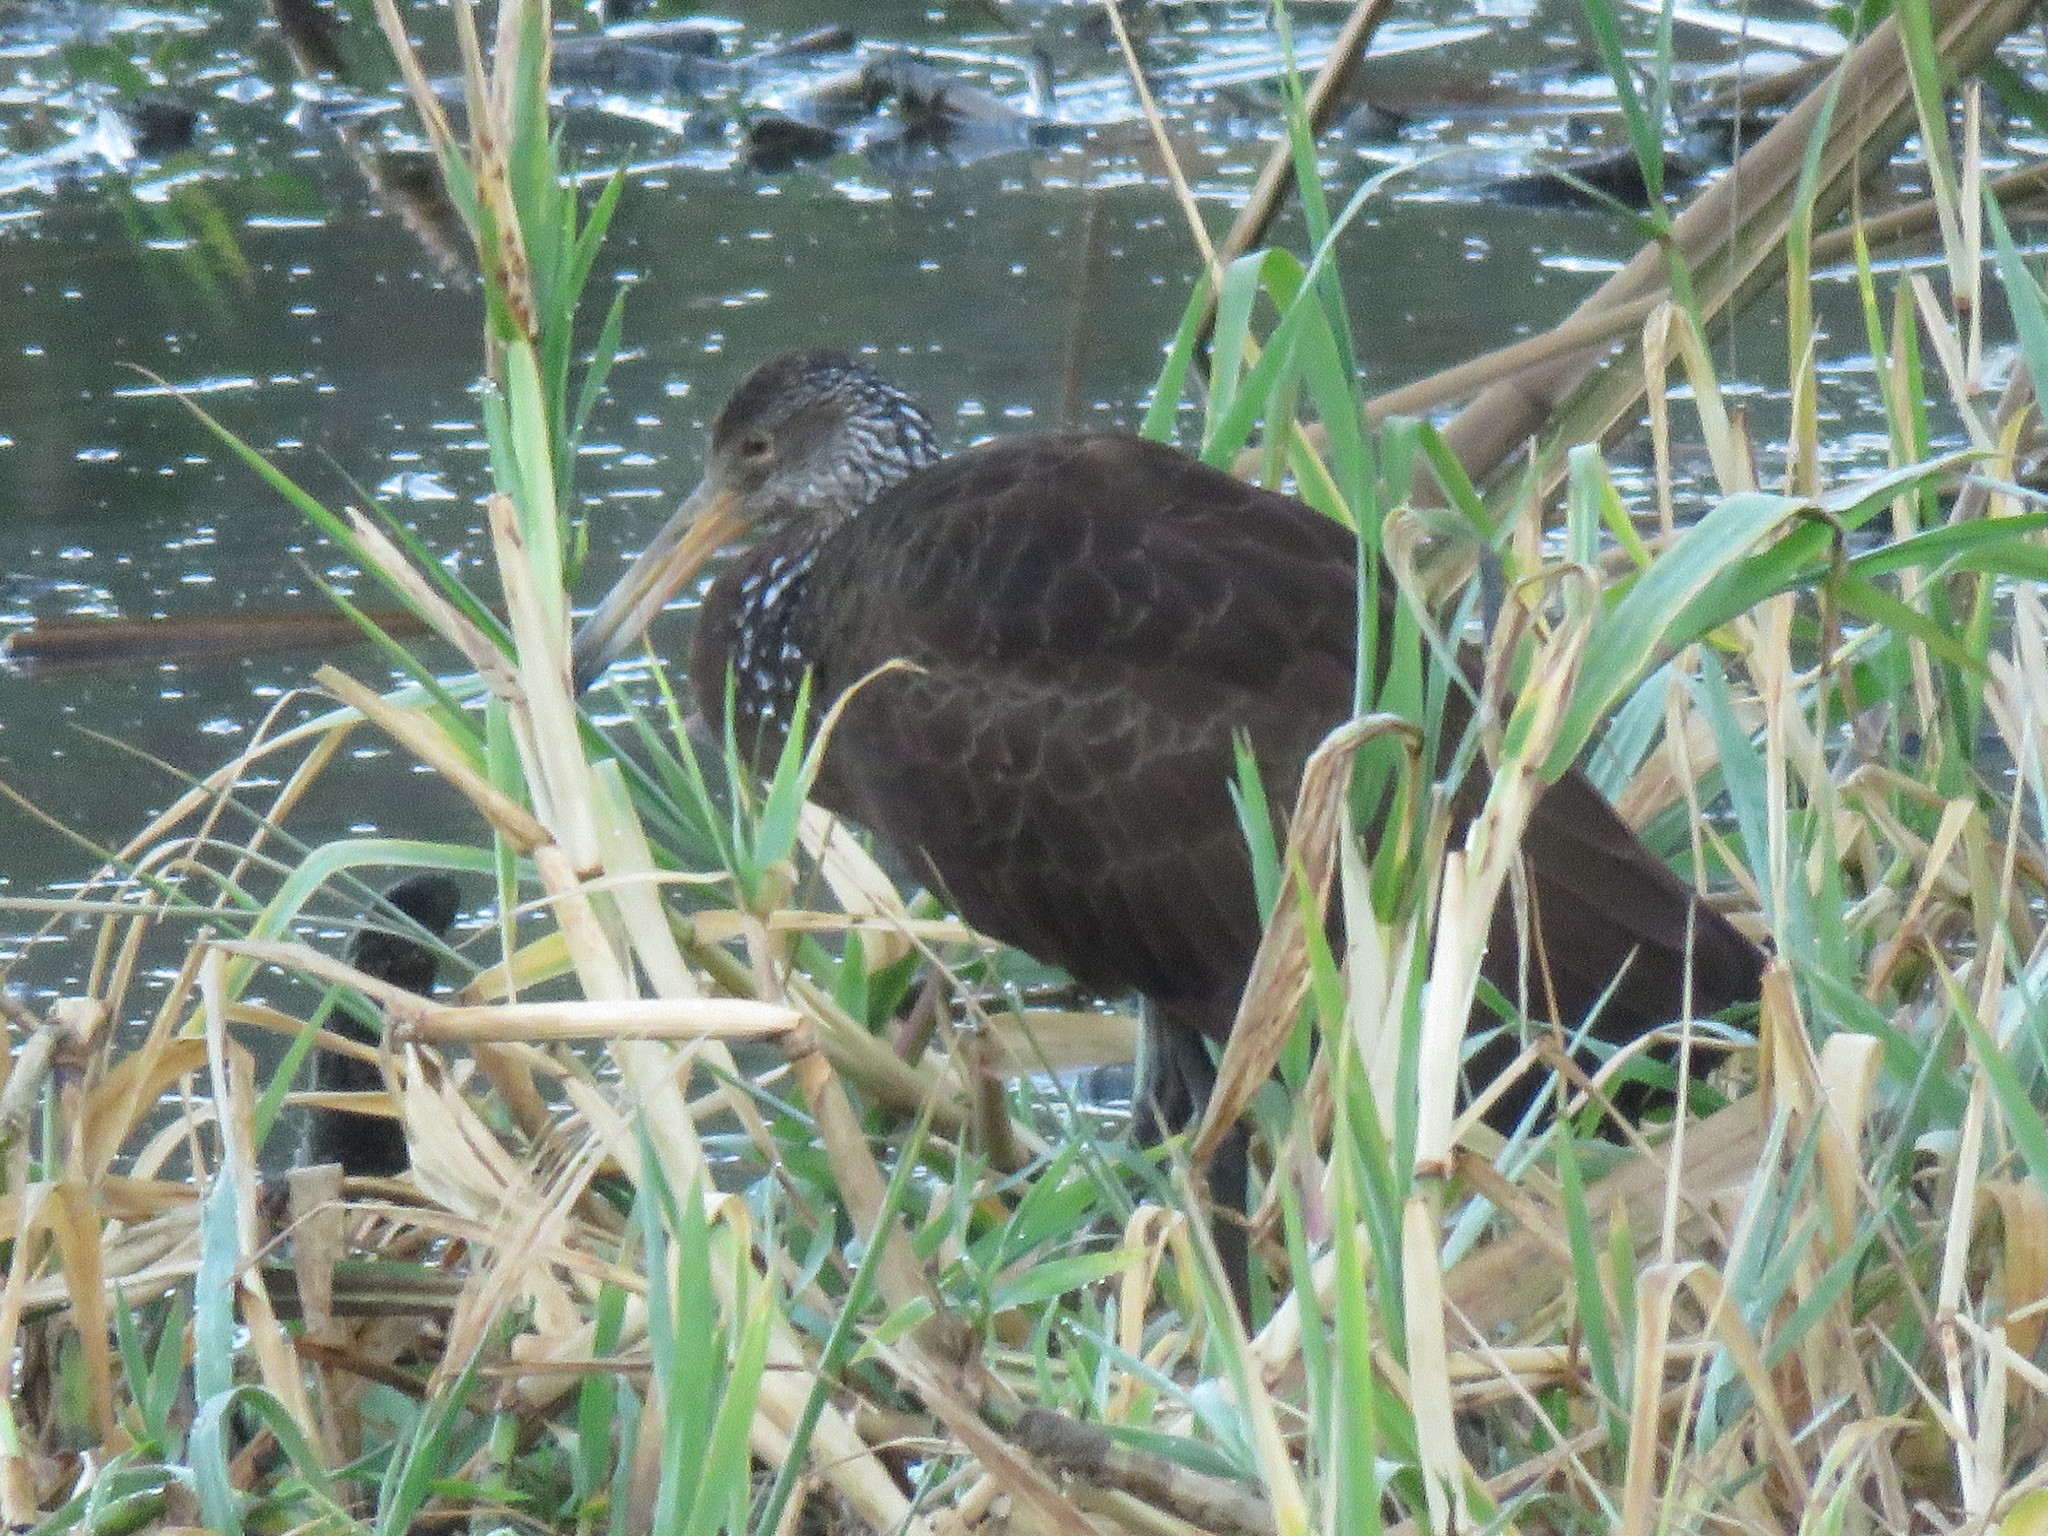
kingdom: Animalia
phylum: Chordata
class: Aves
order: Gruiformes
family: Aramidae
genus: Aramus
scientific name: Aramus guarauna
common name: Limpkin
